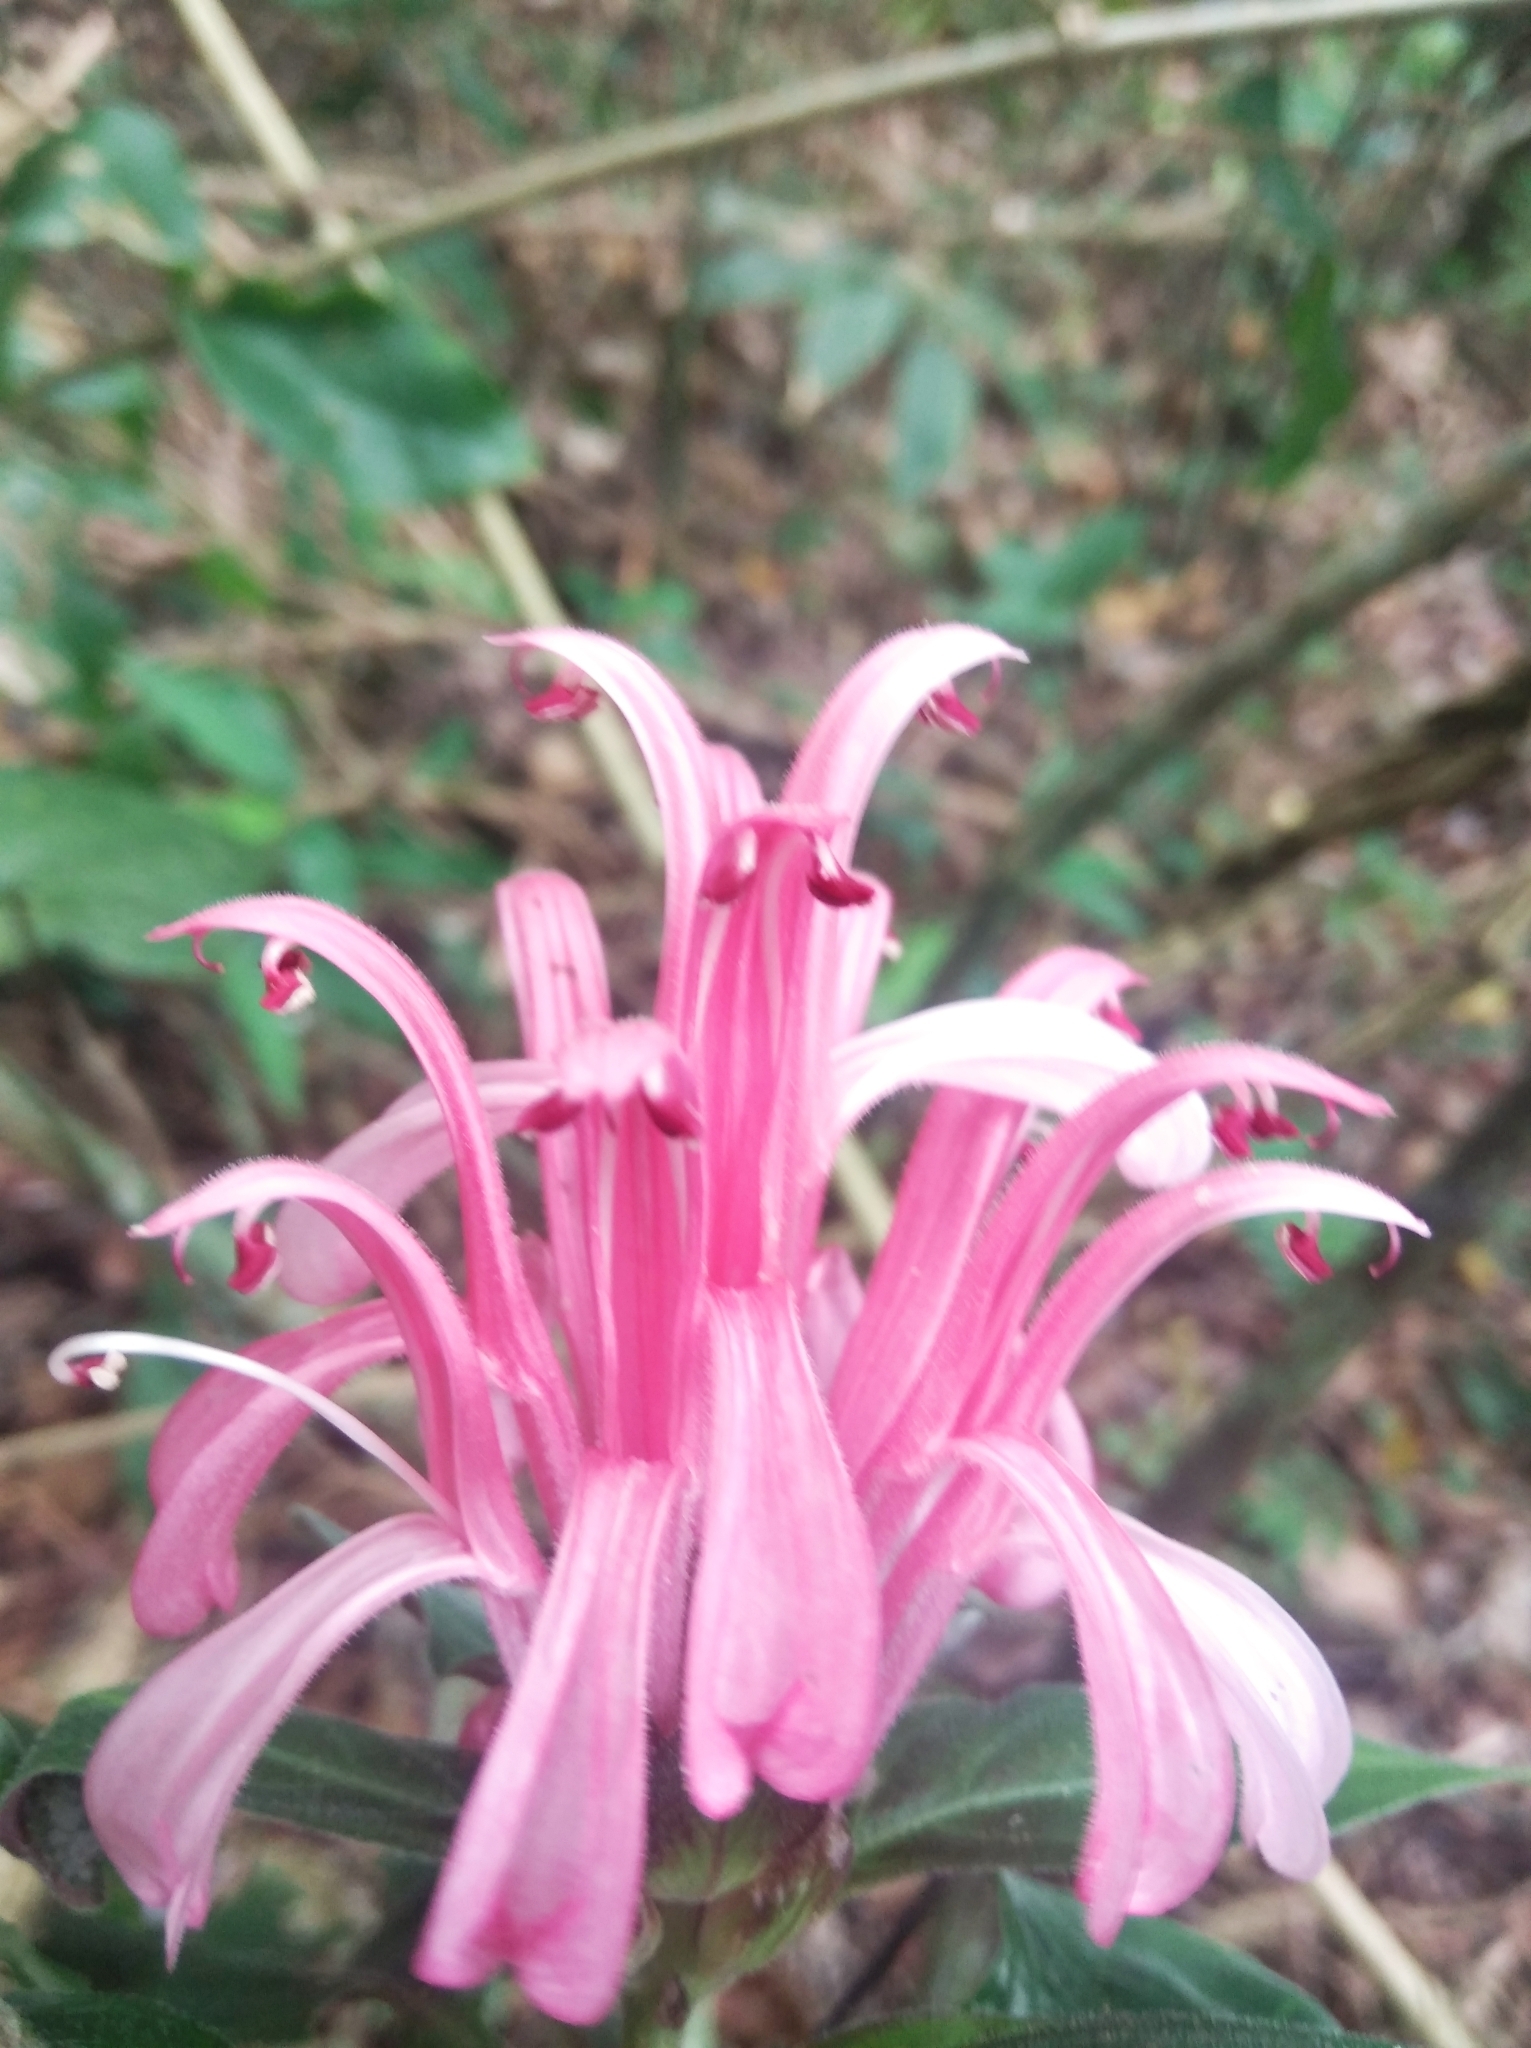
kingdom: Plantae
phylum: Tracheophyta
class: Magnoliopsida
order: Lamiales
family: Acanthaceae
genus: Justicia
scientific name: Justicia carnea
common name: Brazilian-plume
